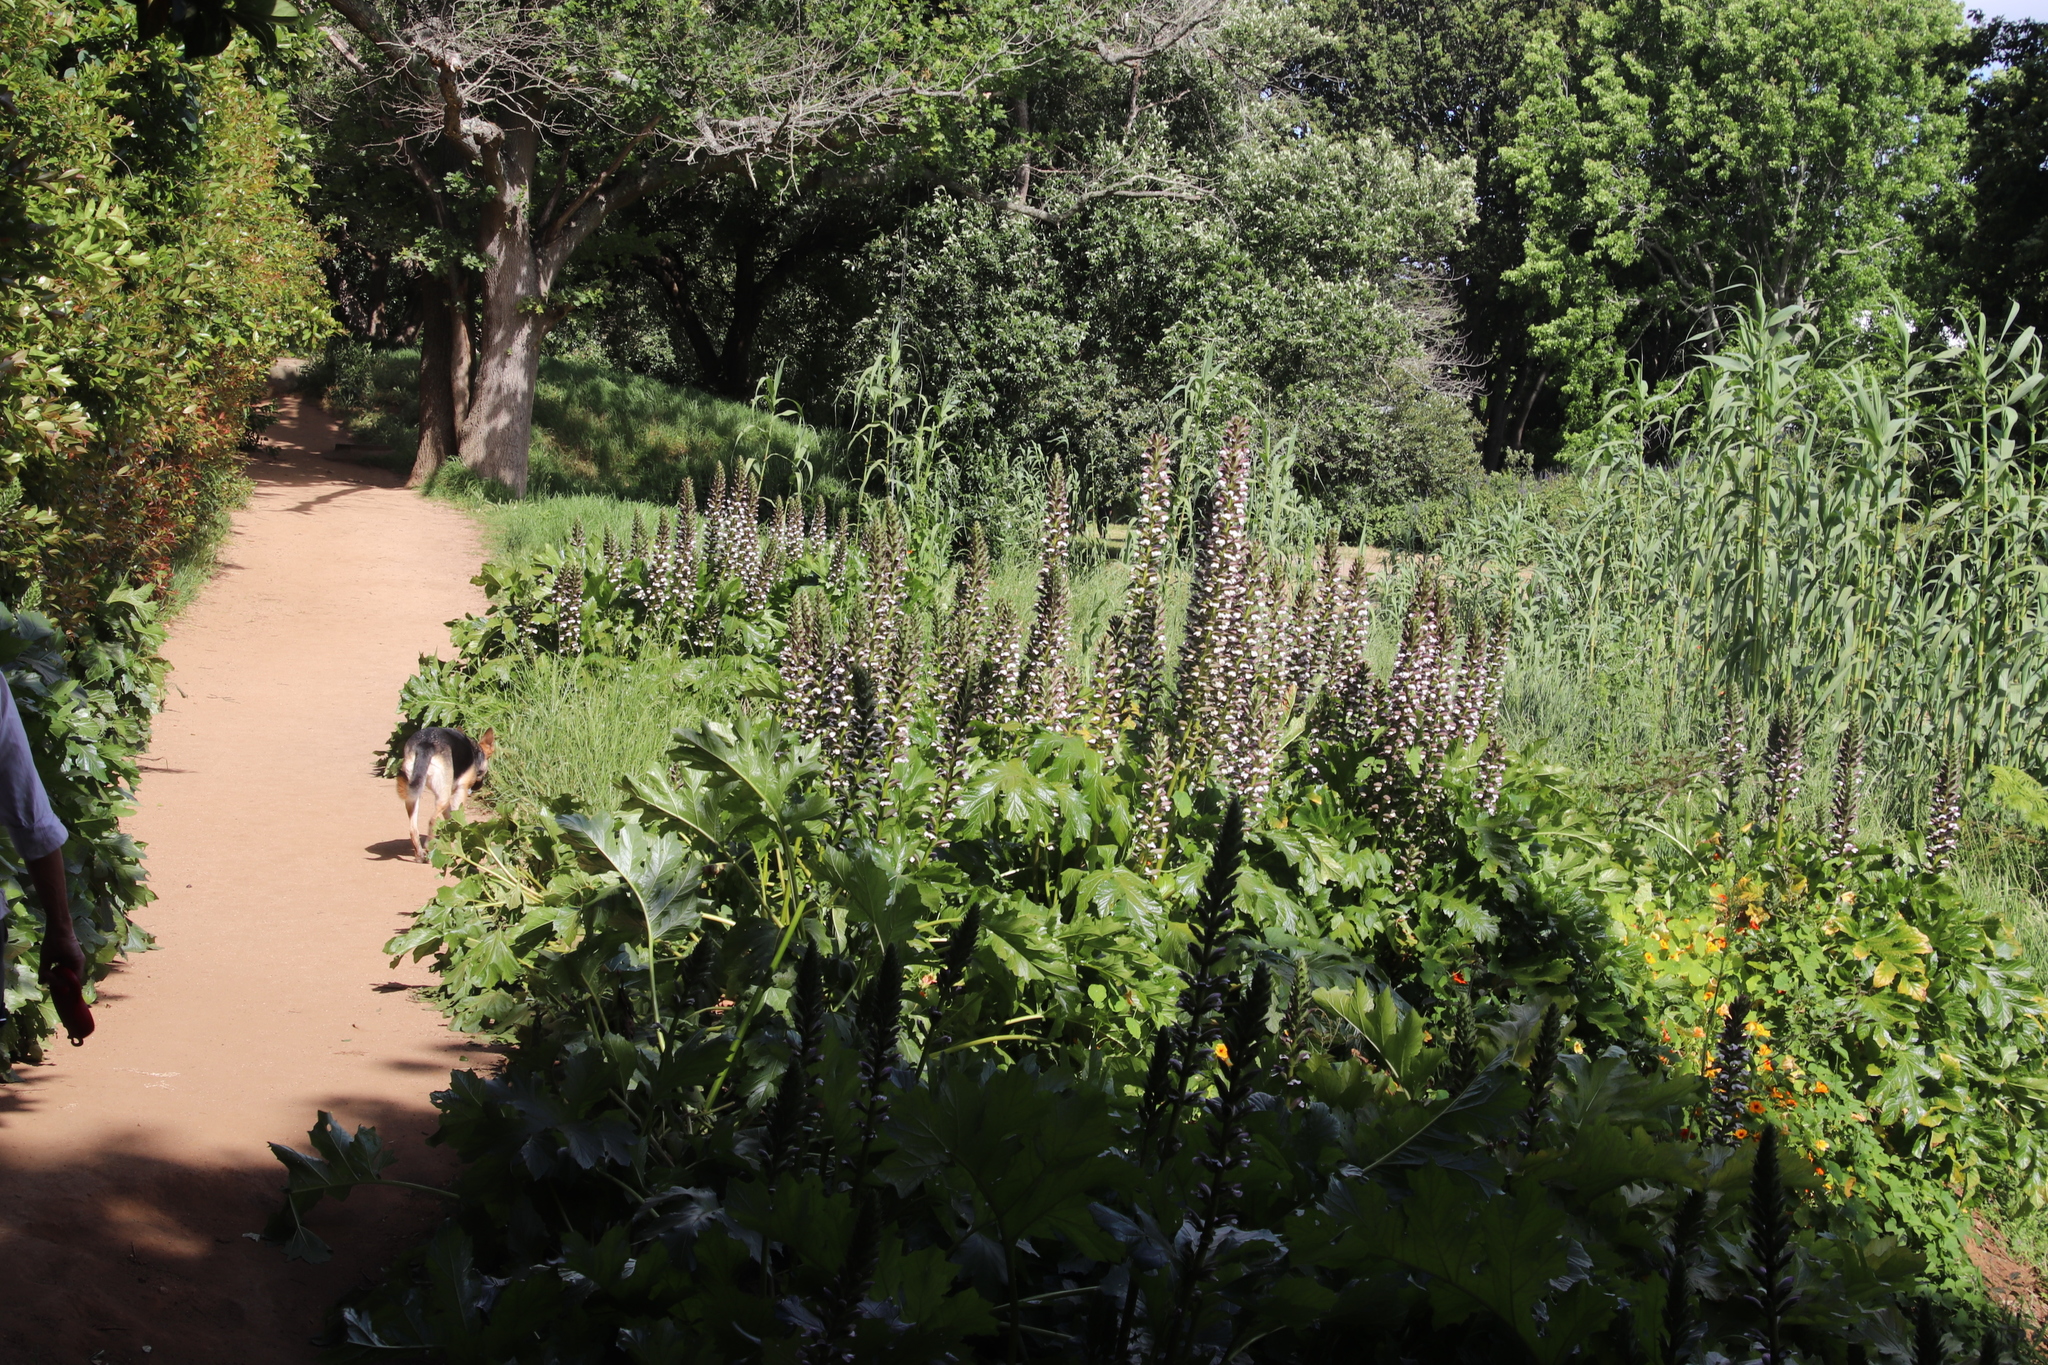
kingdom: Plantae
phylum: Tracheophyta
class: Magnoliopsida
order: Lamiales
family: Acanthaceae
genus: Acanthus
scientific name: Acanthus mollis
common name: Bear's-breech
